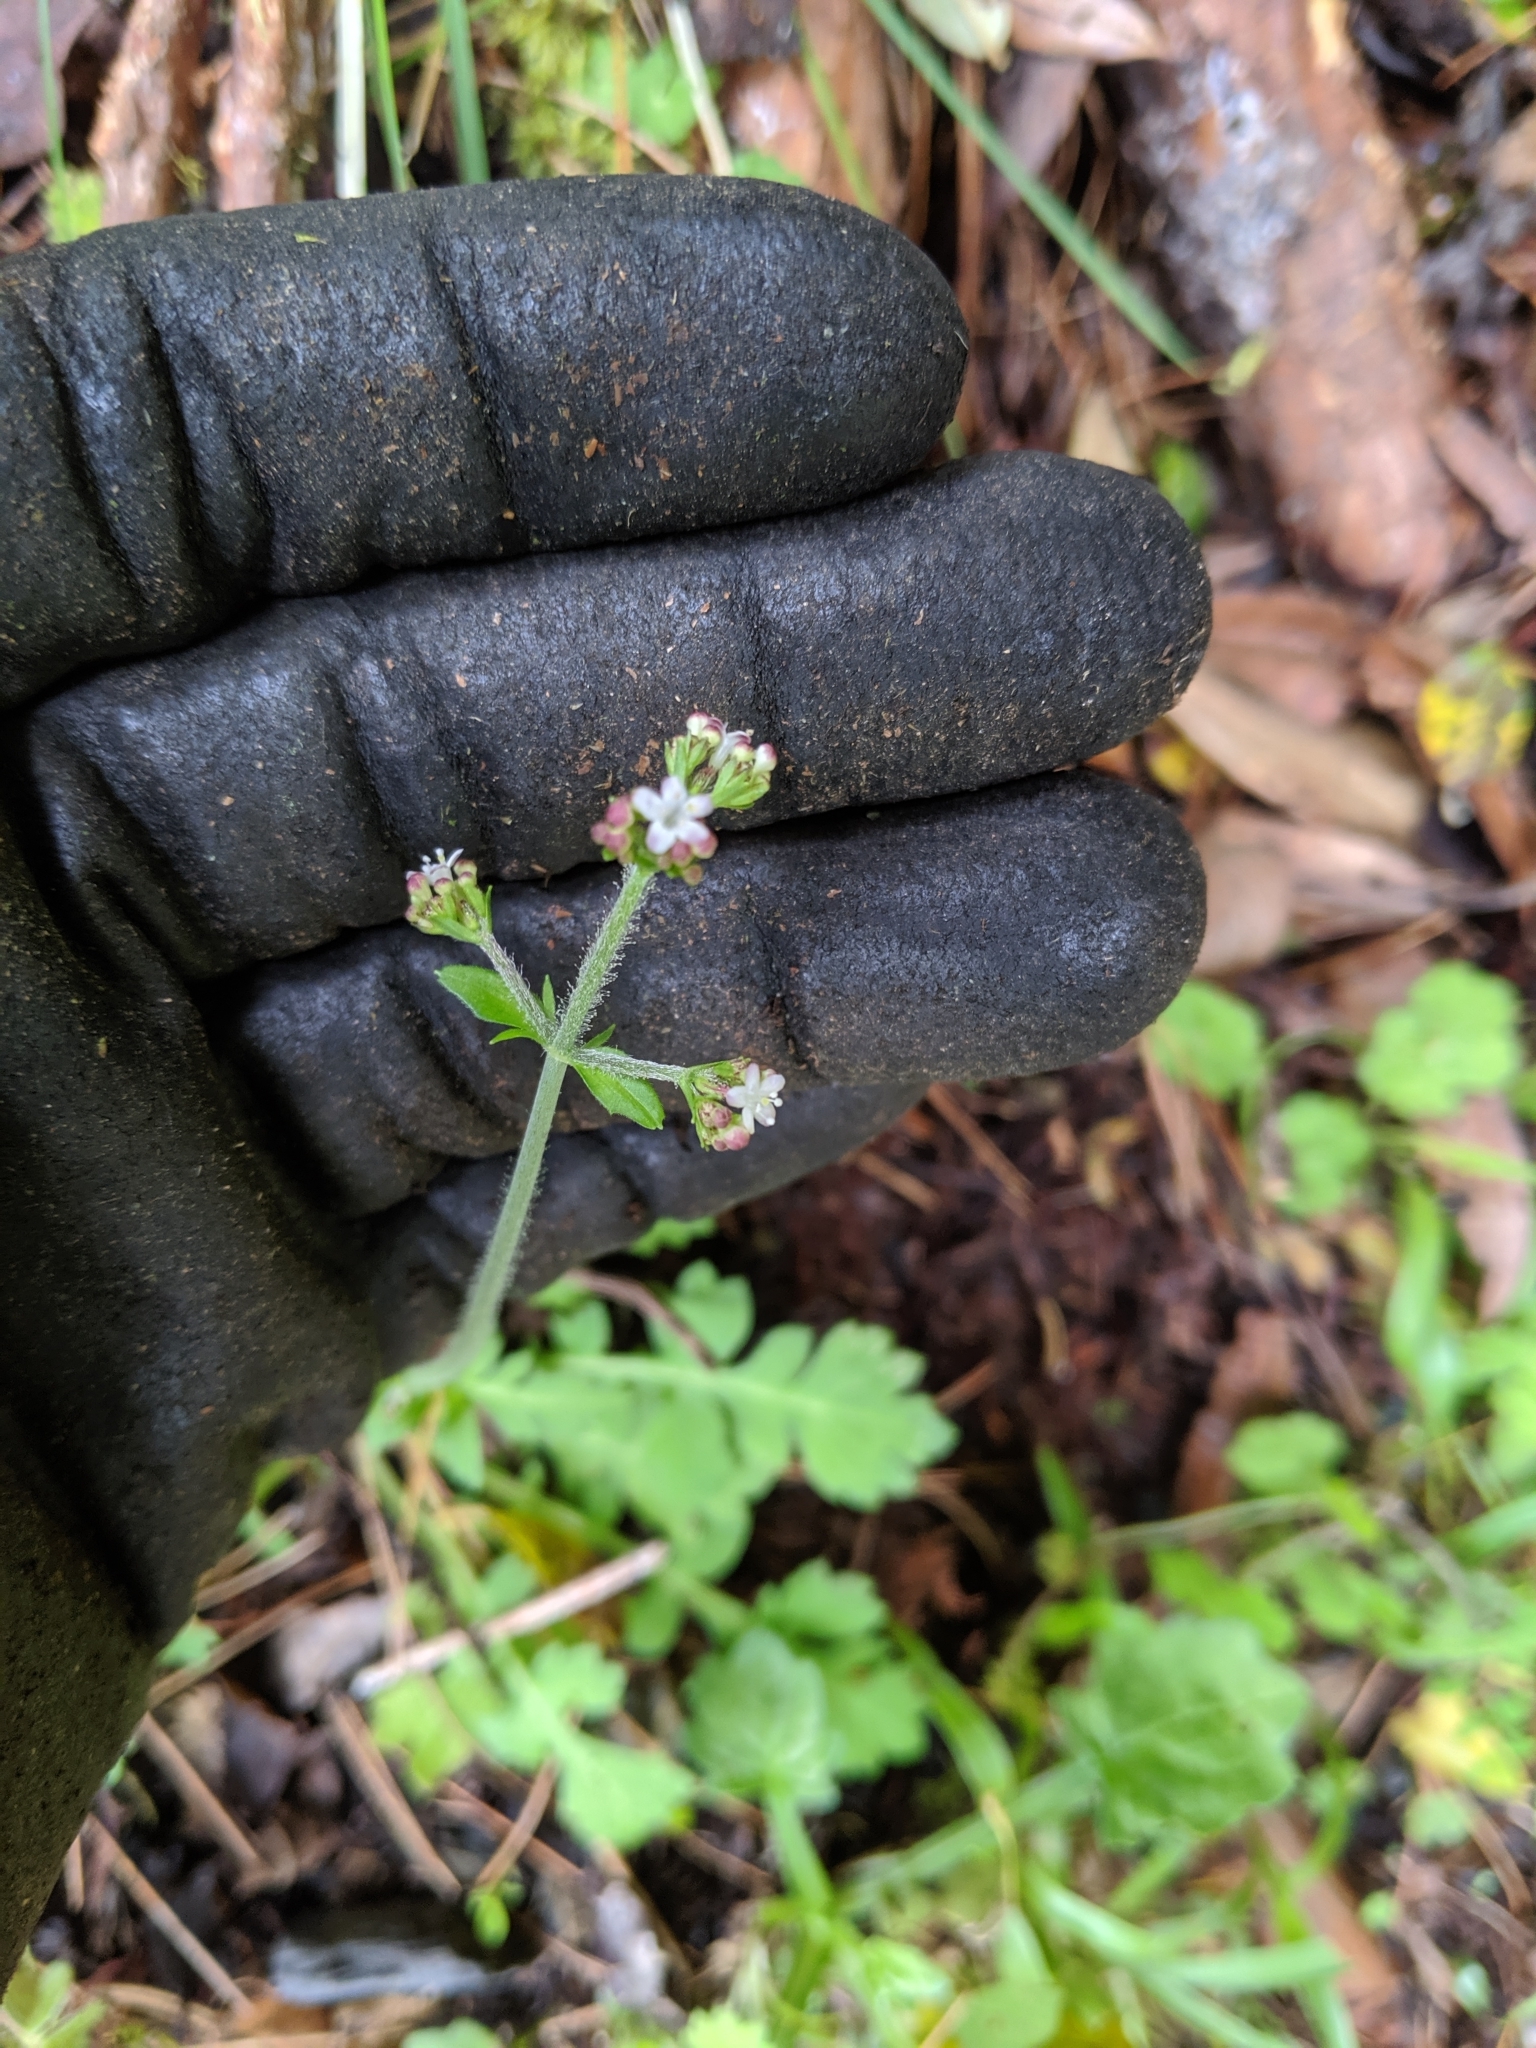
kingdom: Plantae
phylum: Tracheophyta
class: Magnoliopsida
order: Dipsacales
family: Caprifoliaceae
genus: Triplostegia
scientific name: Triplostegia glandulifera
